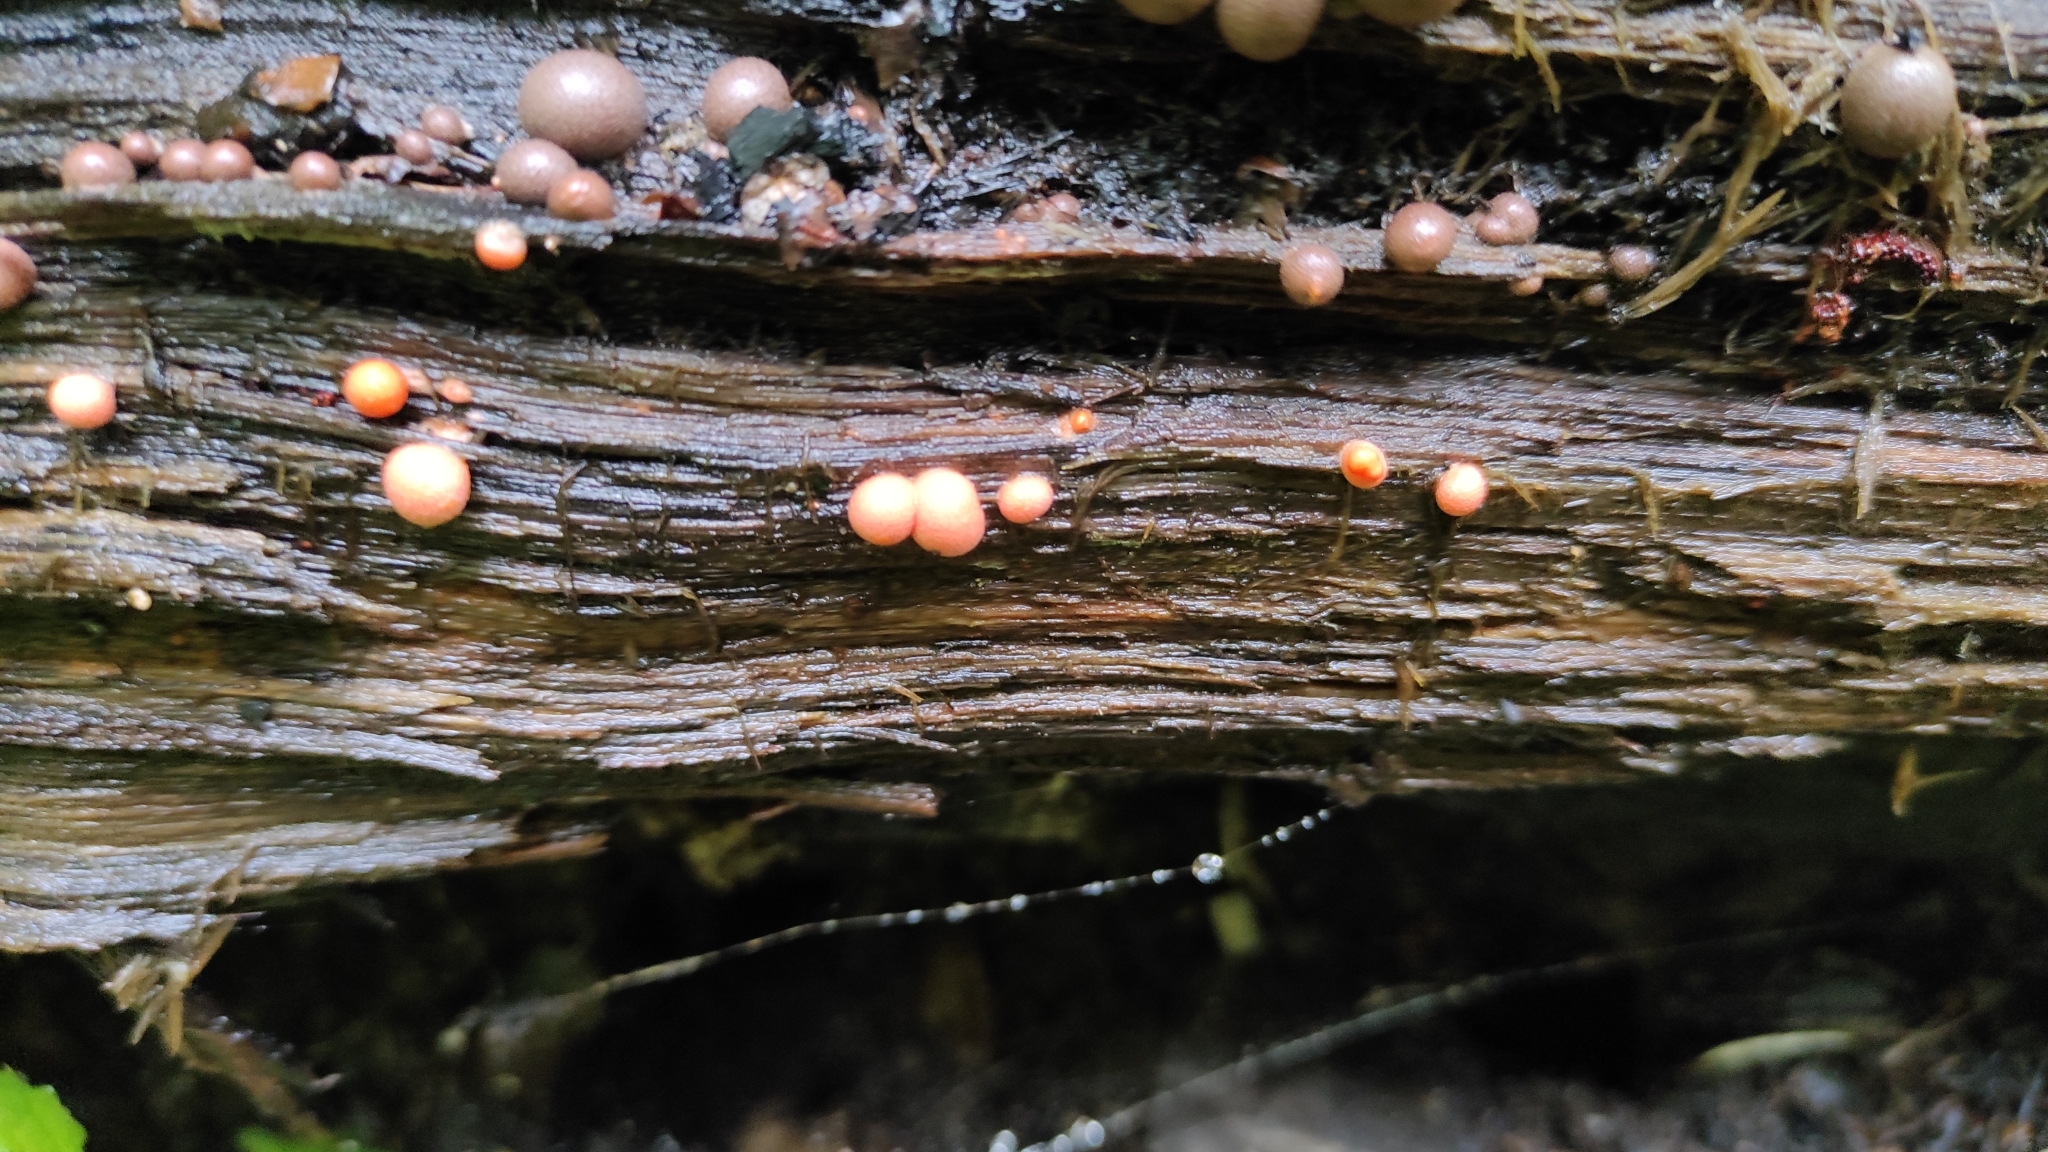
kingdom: Protozoa
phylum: Mycetozoa
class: Myxomycetes
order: Cribrariales
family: Tubiferaceae
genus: Lycogala
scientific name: Lycogala epidendrum
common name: Wolf's milk
